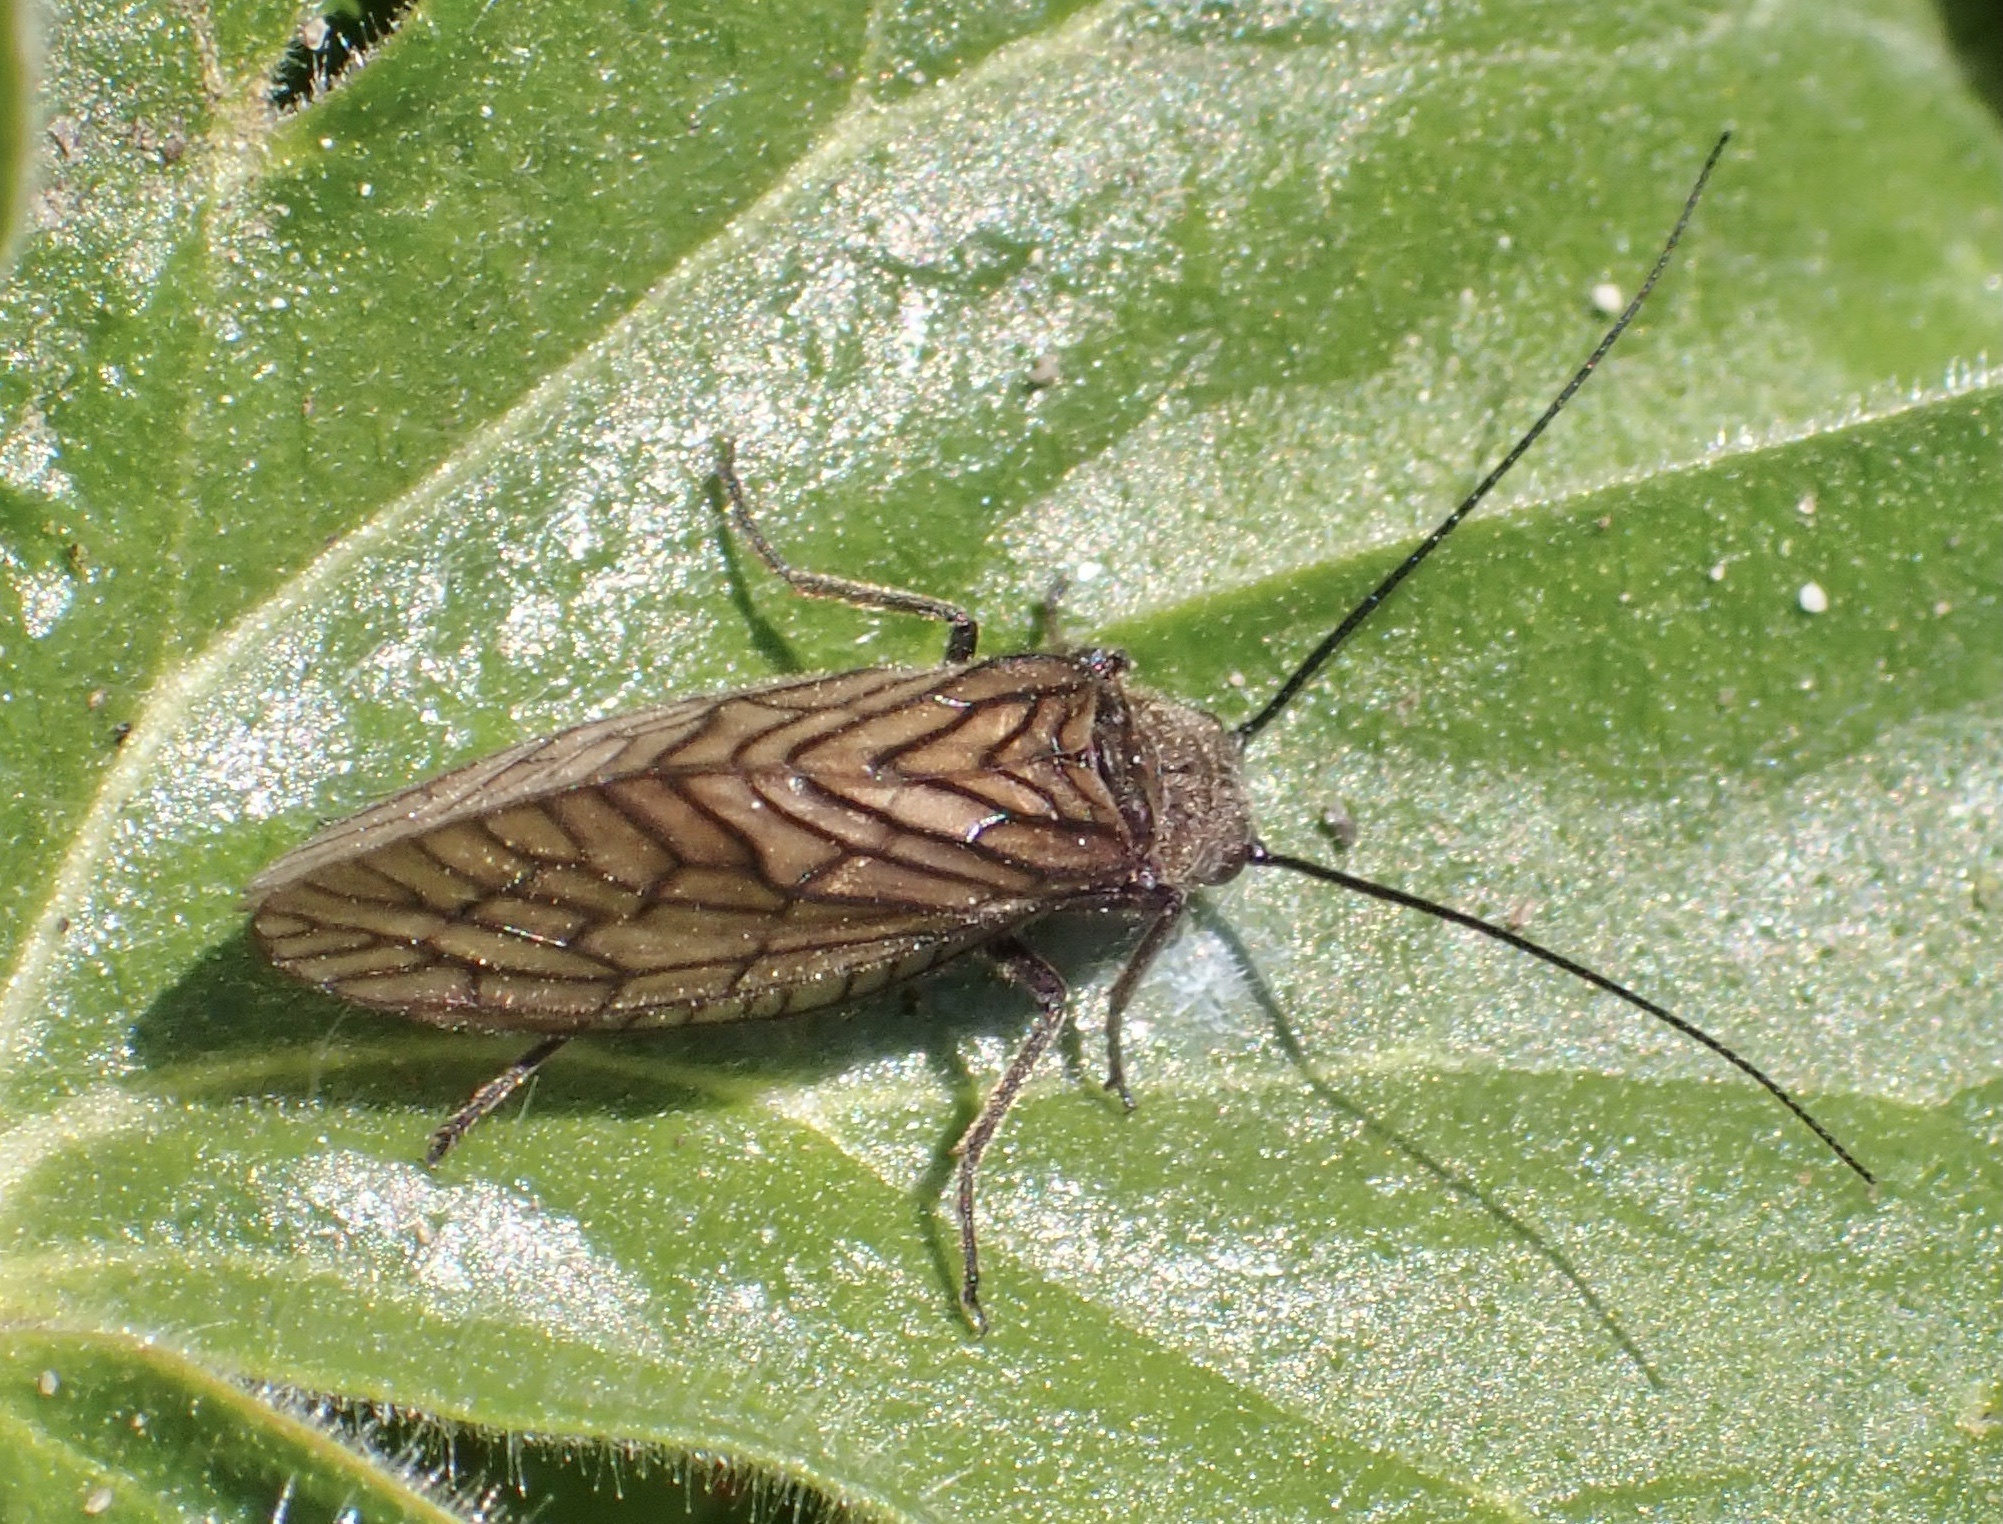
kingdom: Animalia
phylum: Arthropoda
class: Insecta
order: Megaloptera
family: Sialidae
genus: Sialis
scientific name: Sialis
